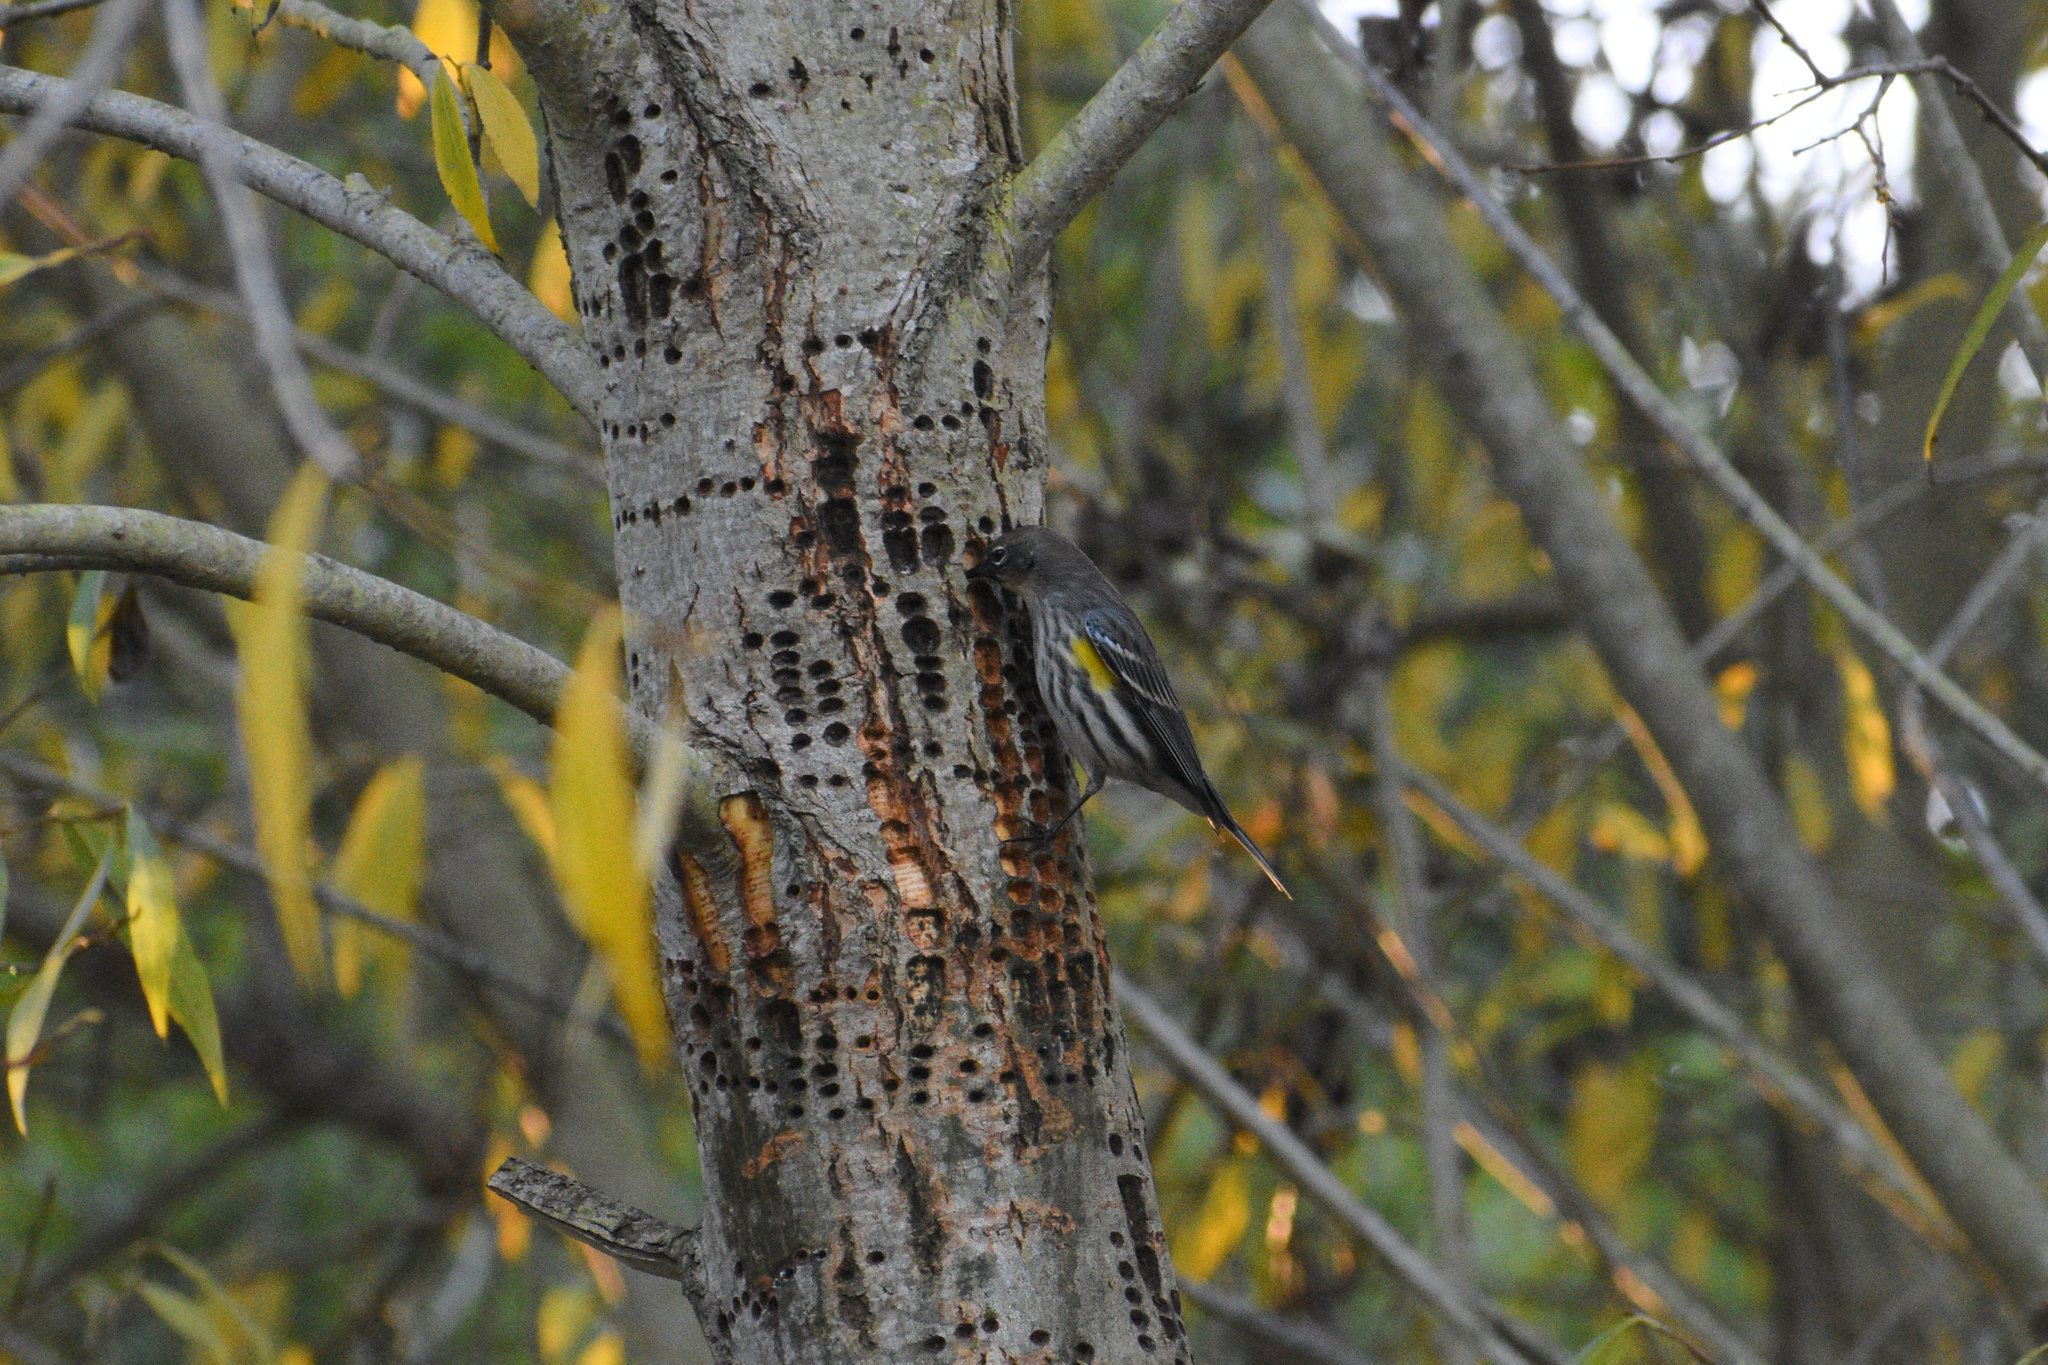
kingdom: Animalia
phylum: Chordata
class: Aves
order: Passeriformes
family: Parulidae
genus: Setophaga
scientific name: Setophaga coronata
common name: Myrtle warbler
